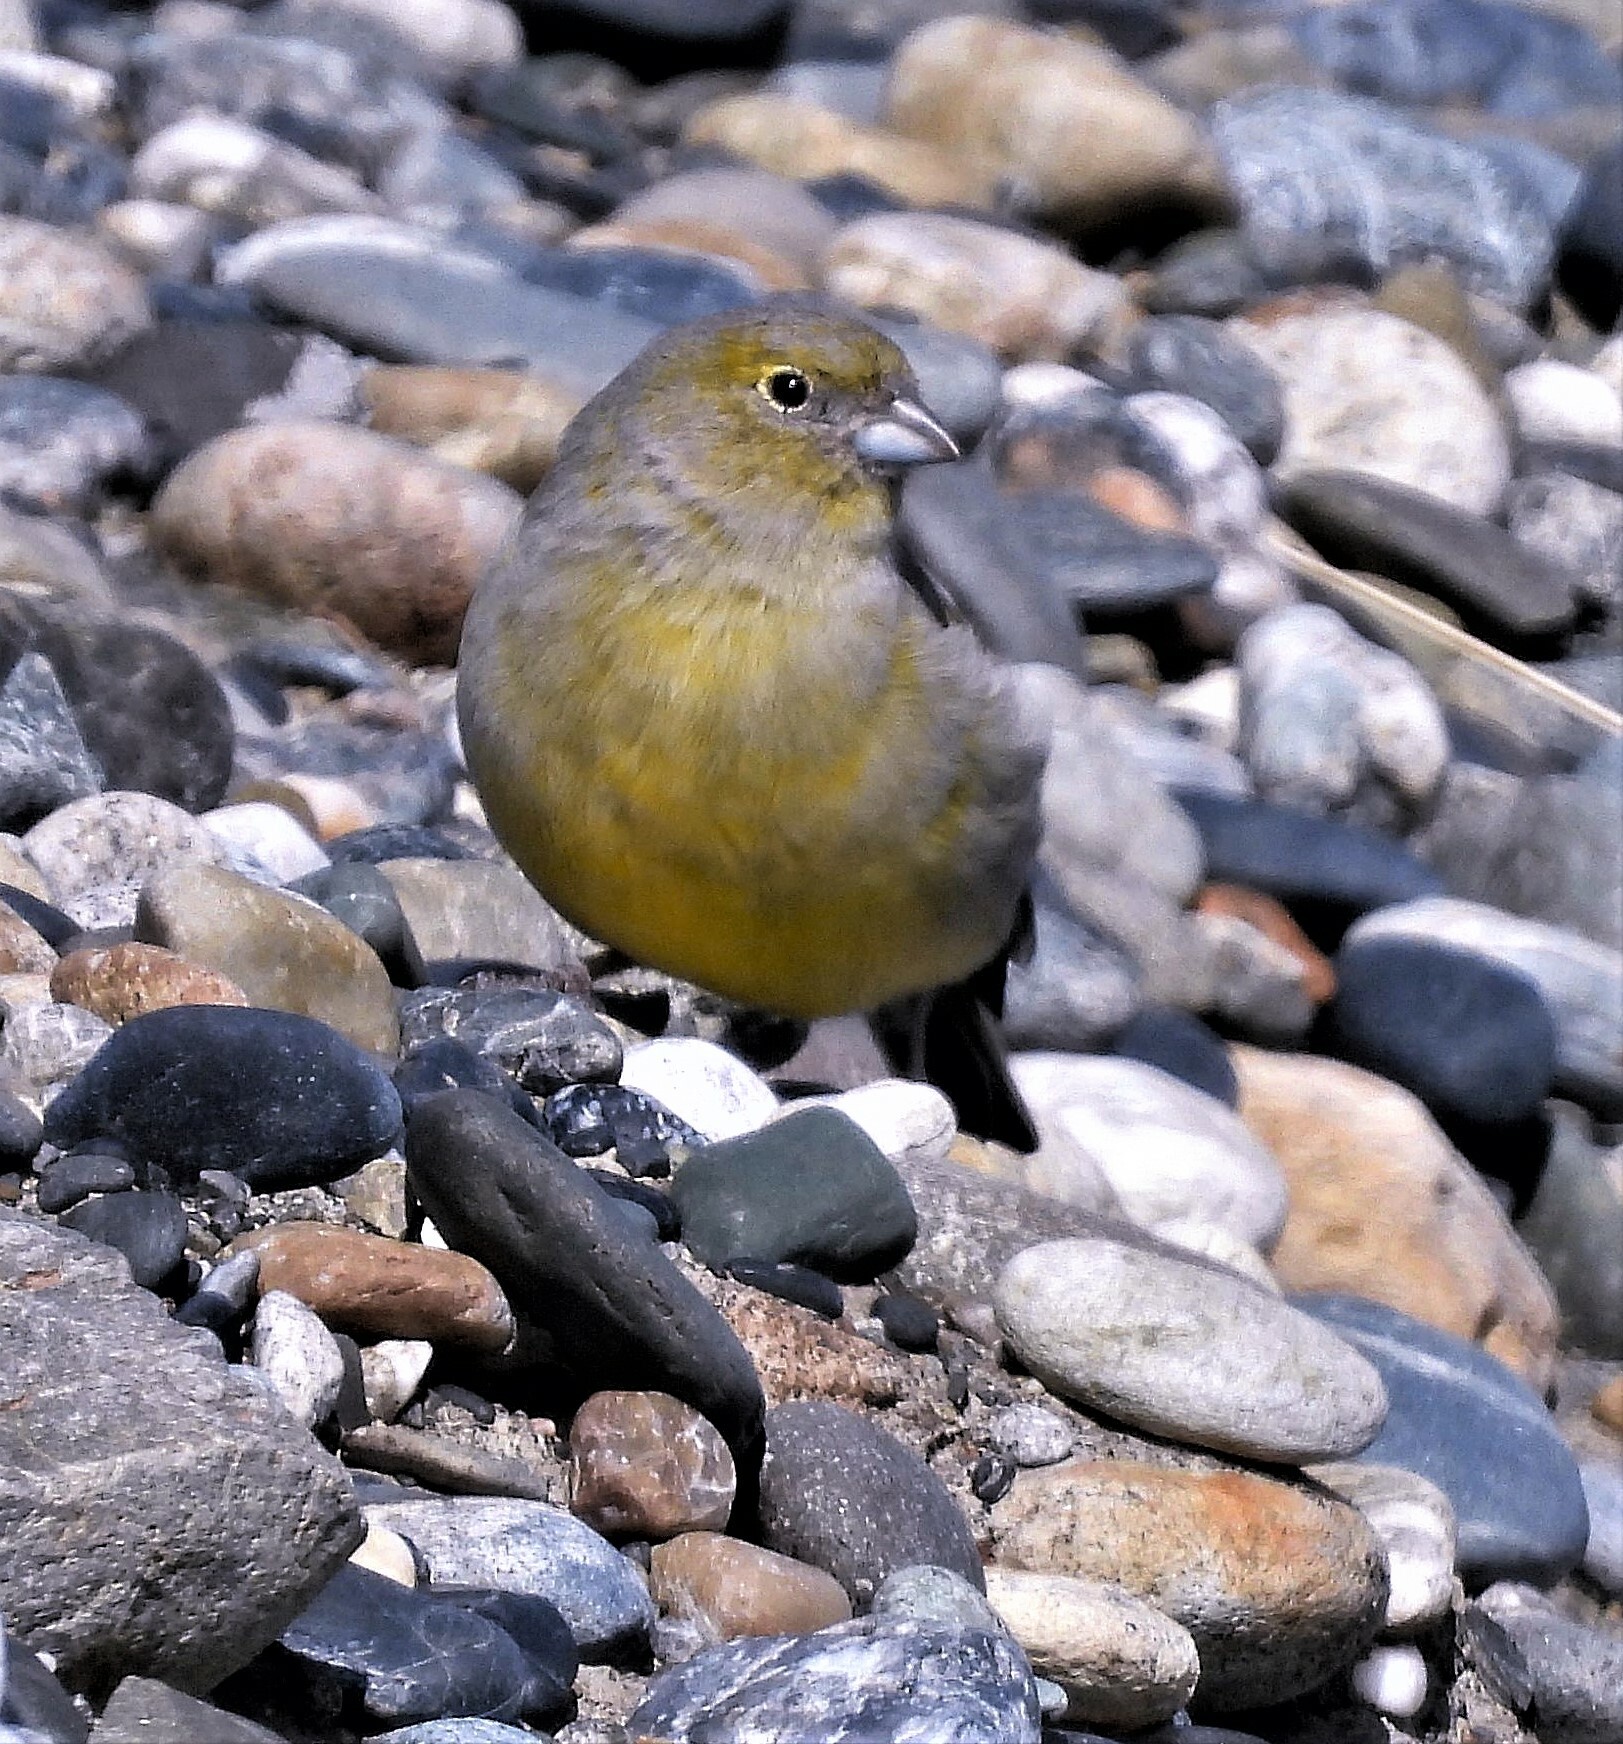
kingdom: Animalia
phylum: Chordata
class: Aves
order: Passeriformes
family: Thraupidae
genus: Sicalis
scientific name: Sicalis lebruni
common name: Patagonian yellow finch
